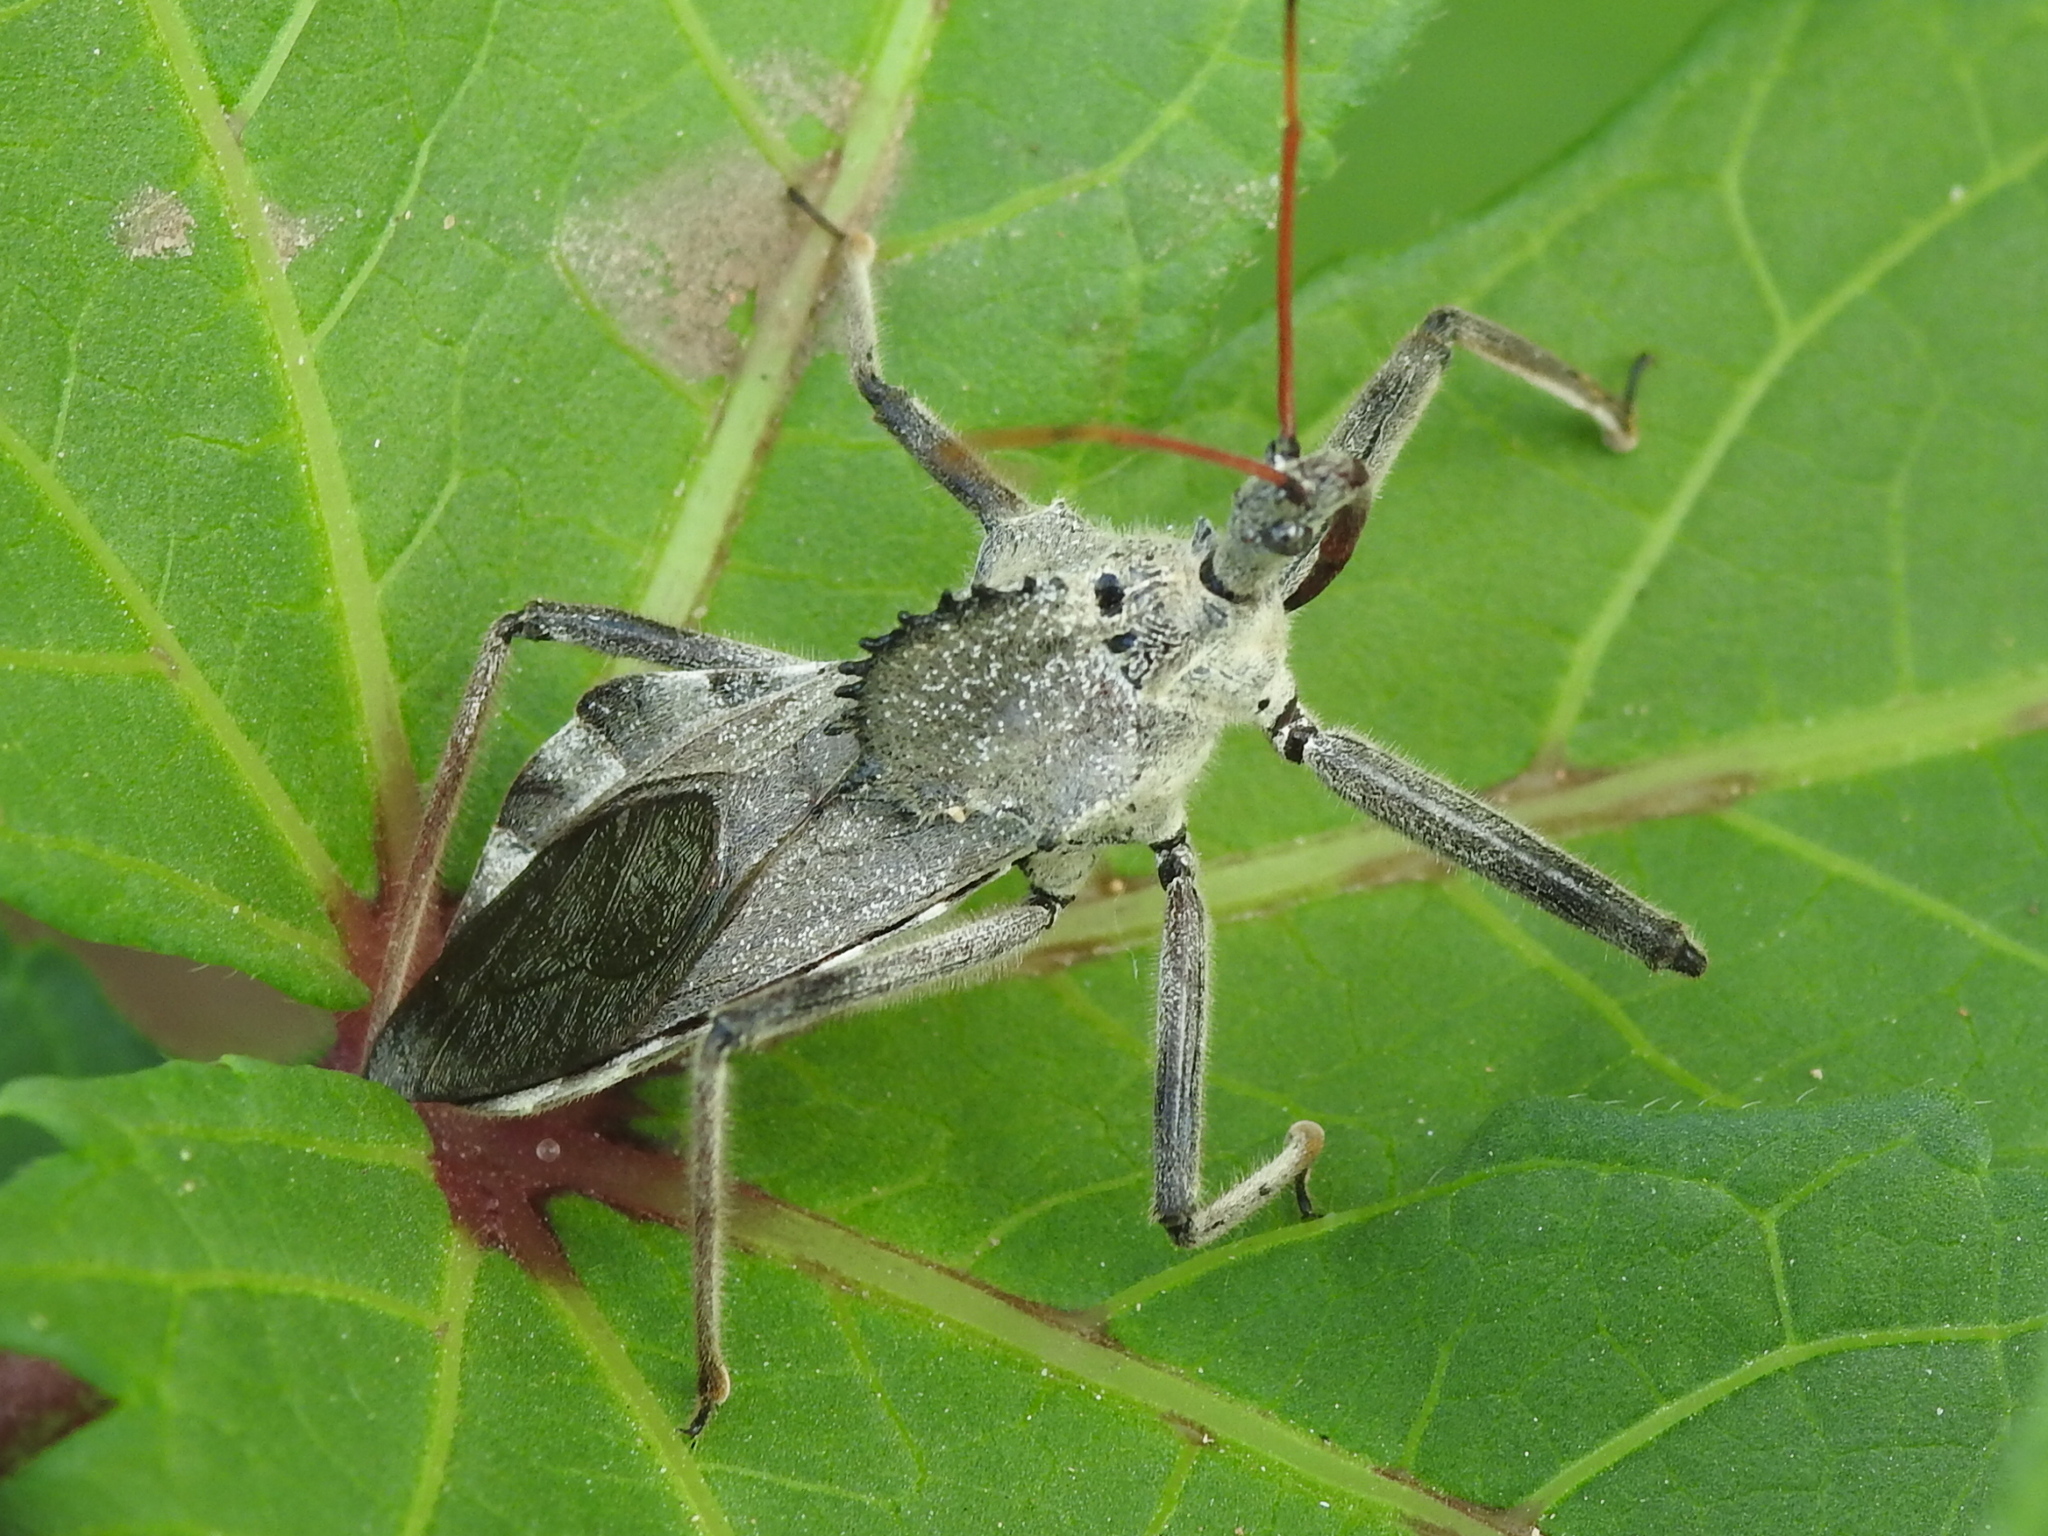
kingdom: Animalia
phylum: Arthropoda
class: Insecta
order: Hemiptera
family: Reduviidae
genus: Arilus
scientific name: Arilus cristatus
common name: North american wheel bug
